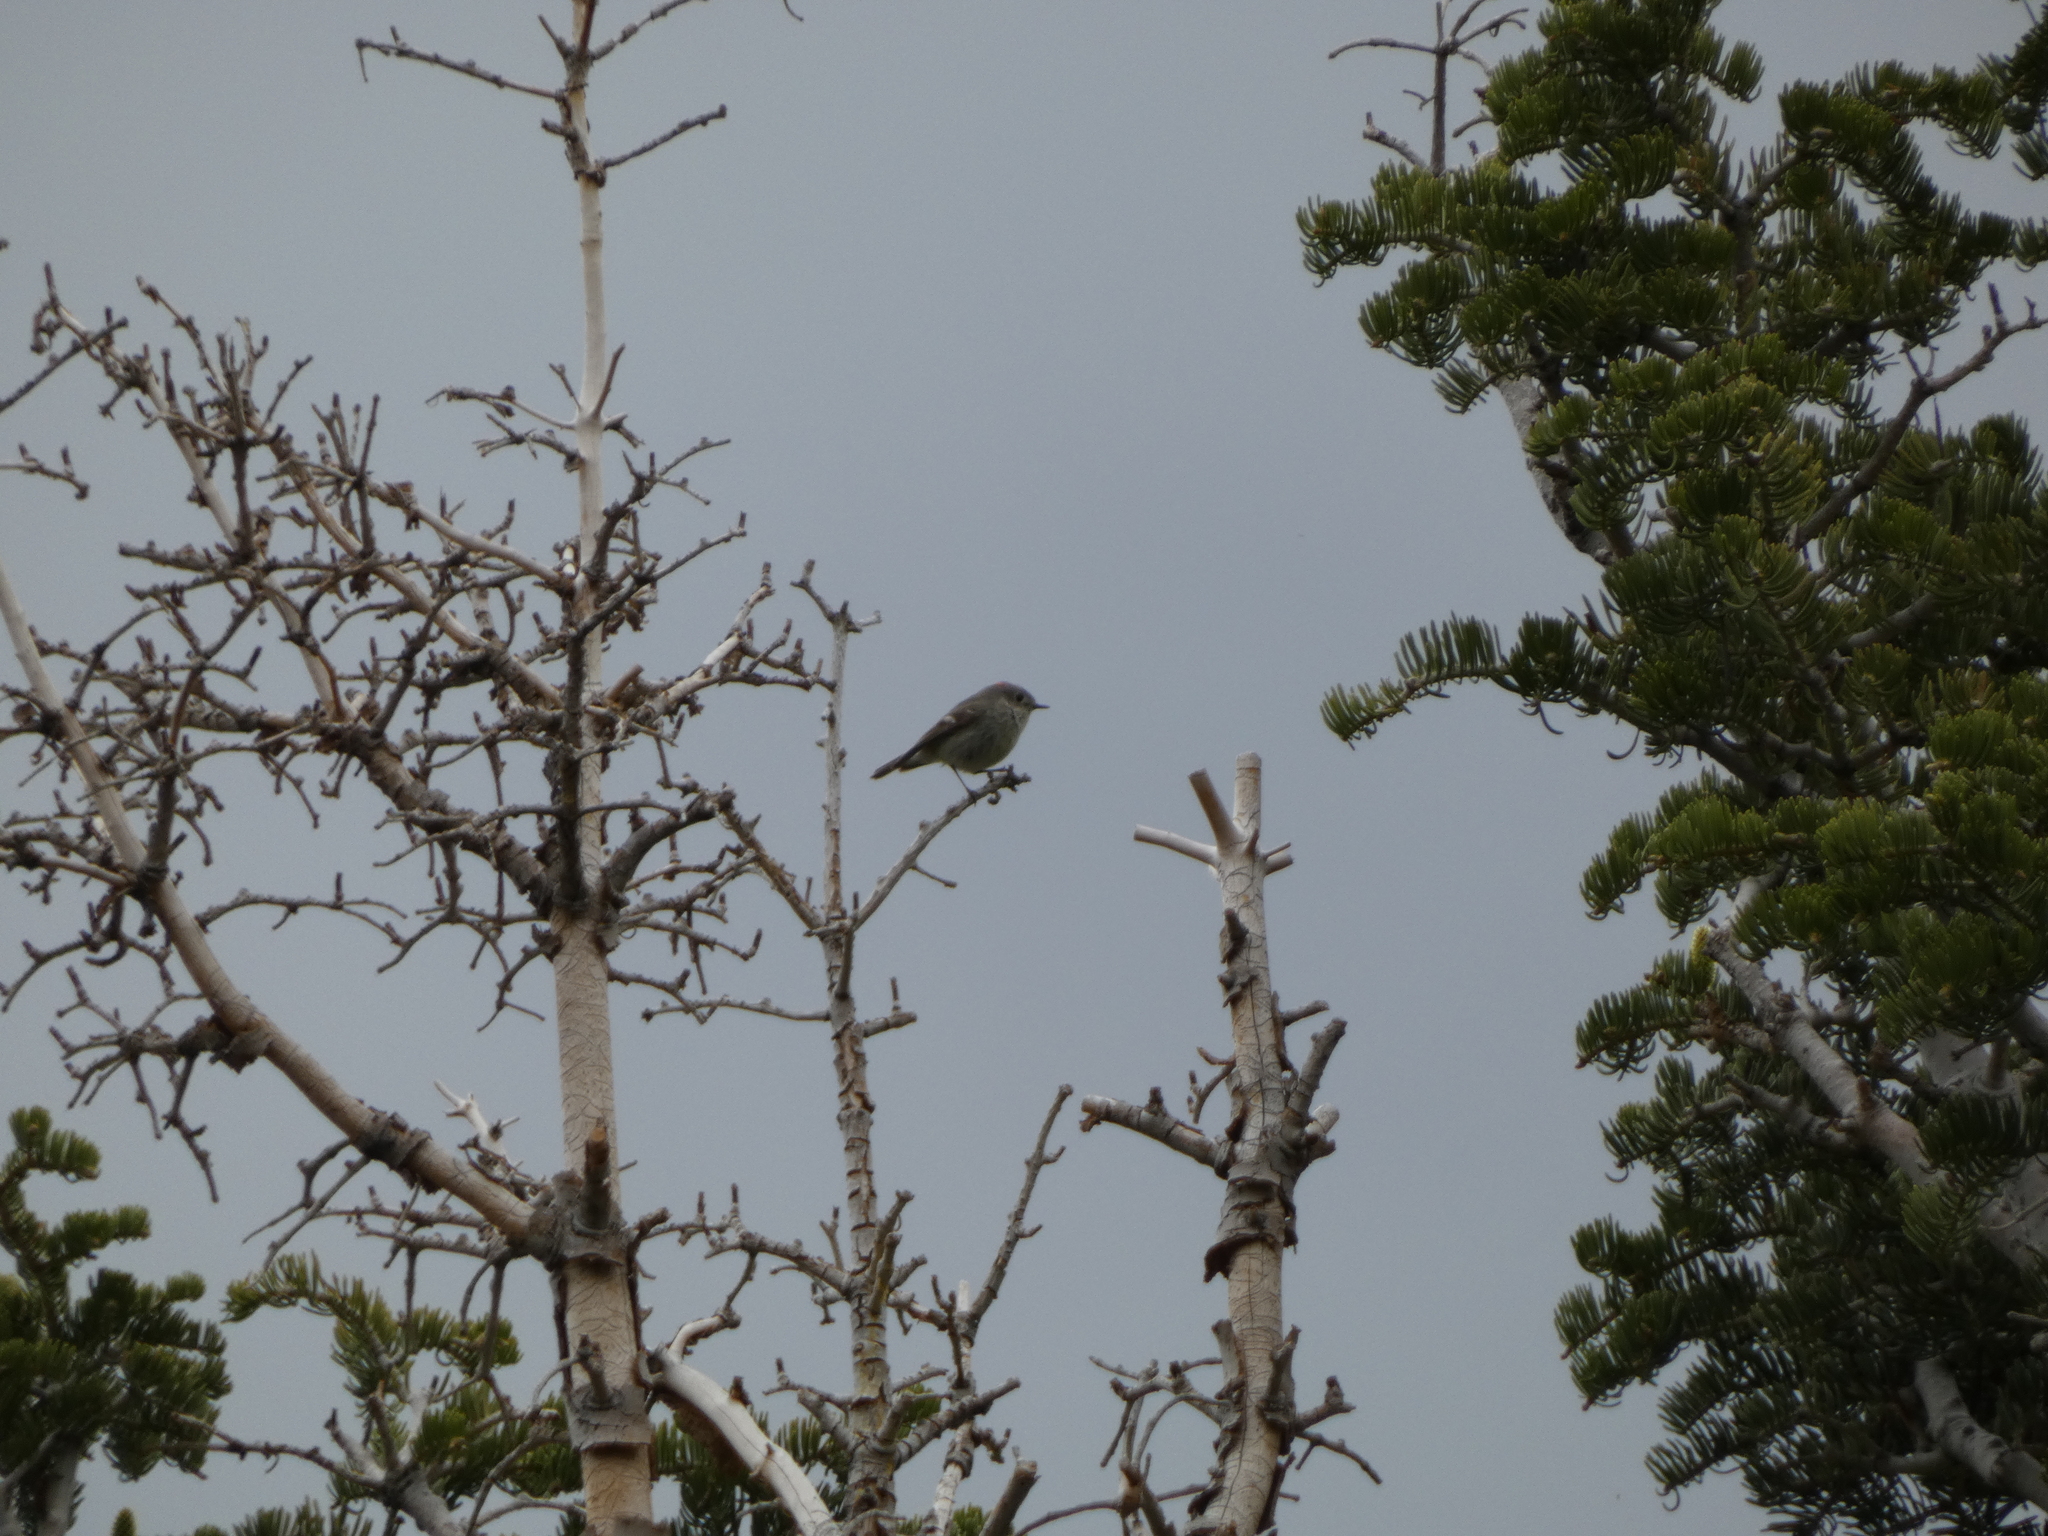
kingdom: Animalia
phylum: Chordata
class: Aves
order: Passeriformes
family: Regulidae
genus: Regulus
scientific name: Regulus calendula
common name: Ruby-crowned kinglet
